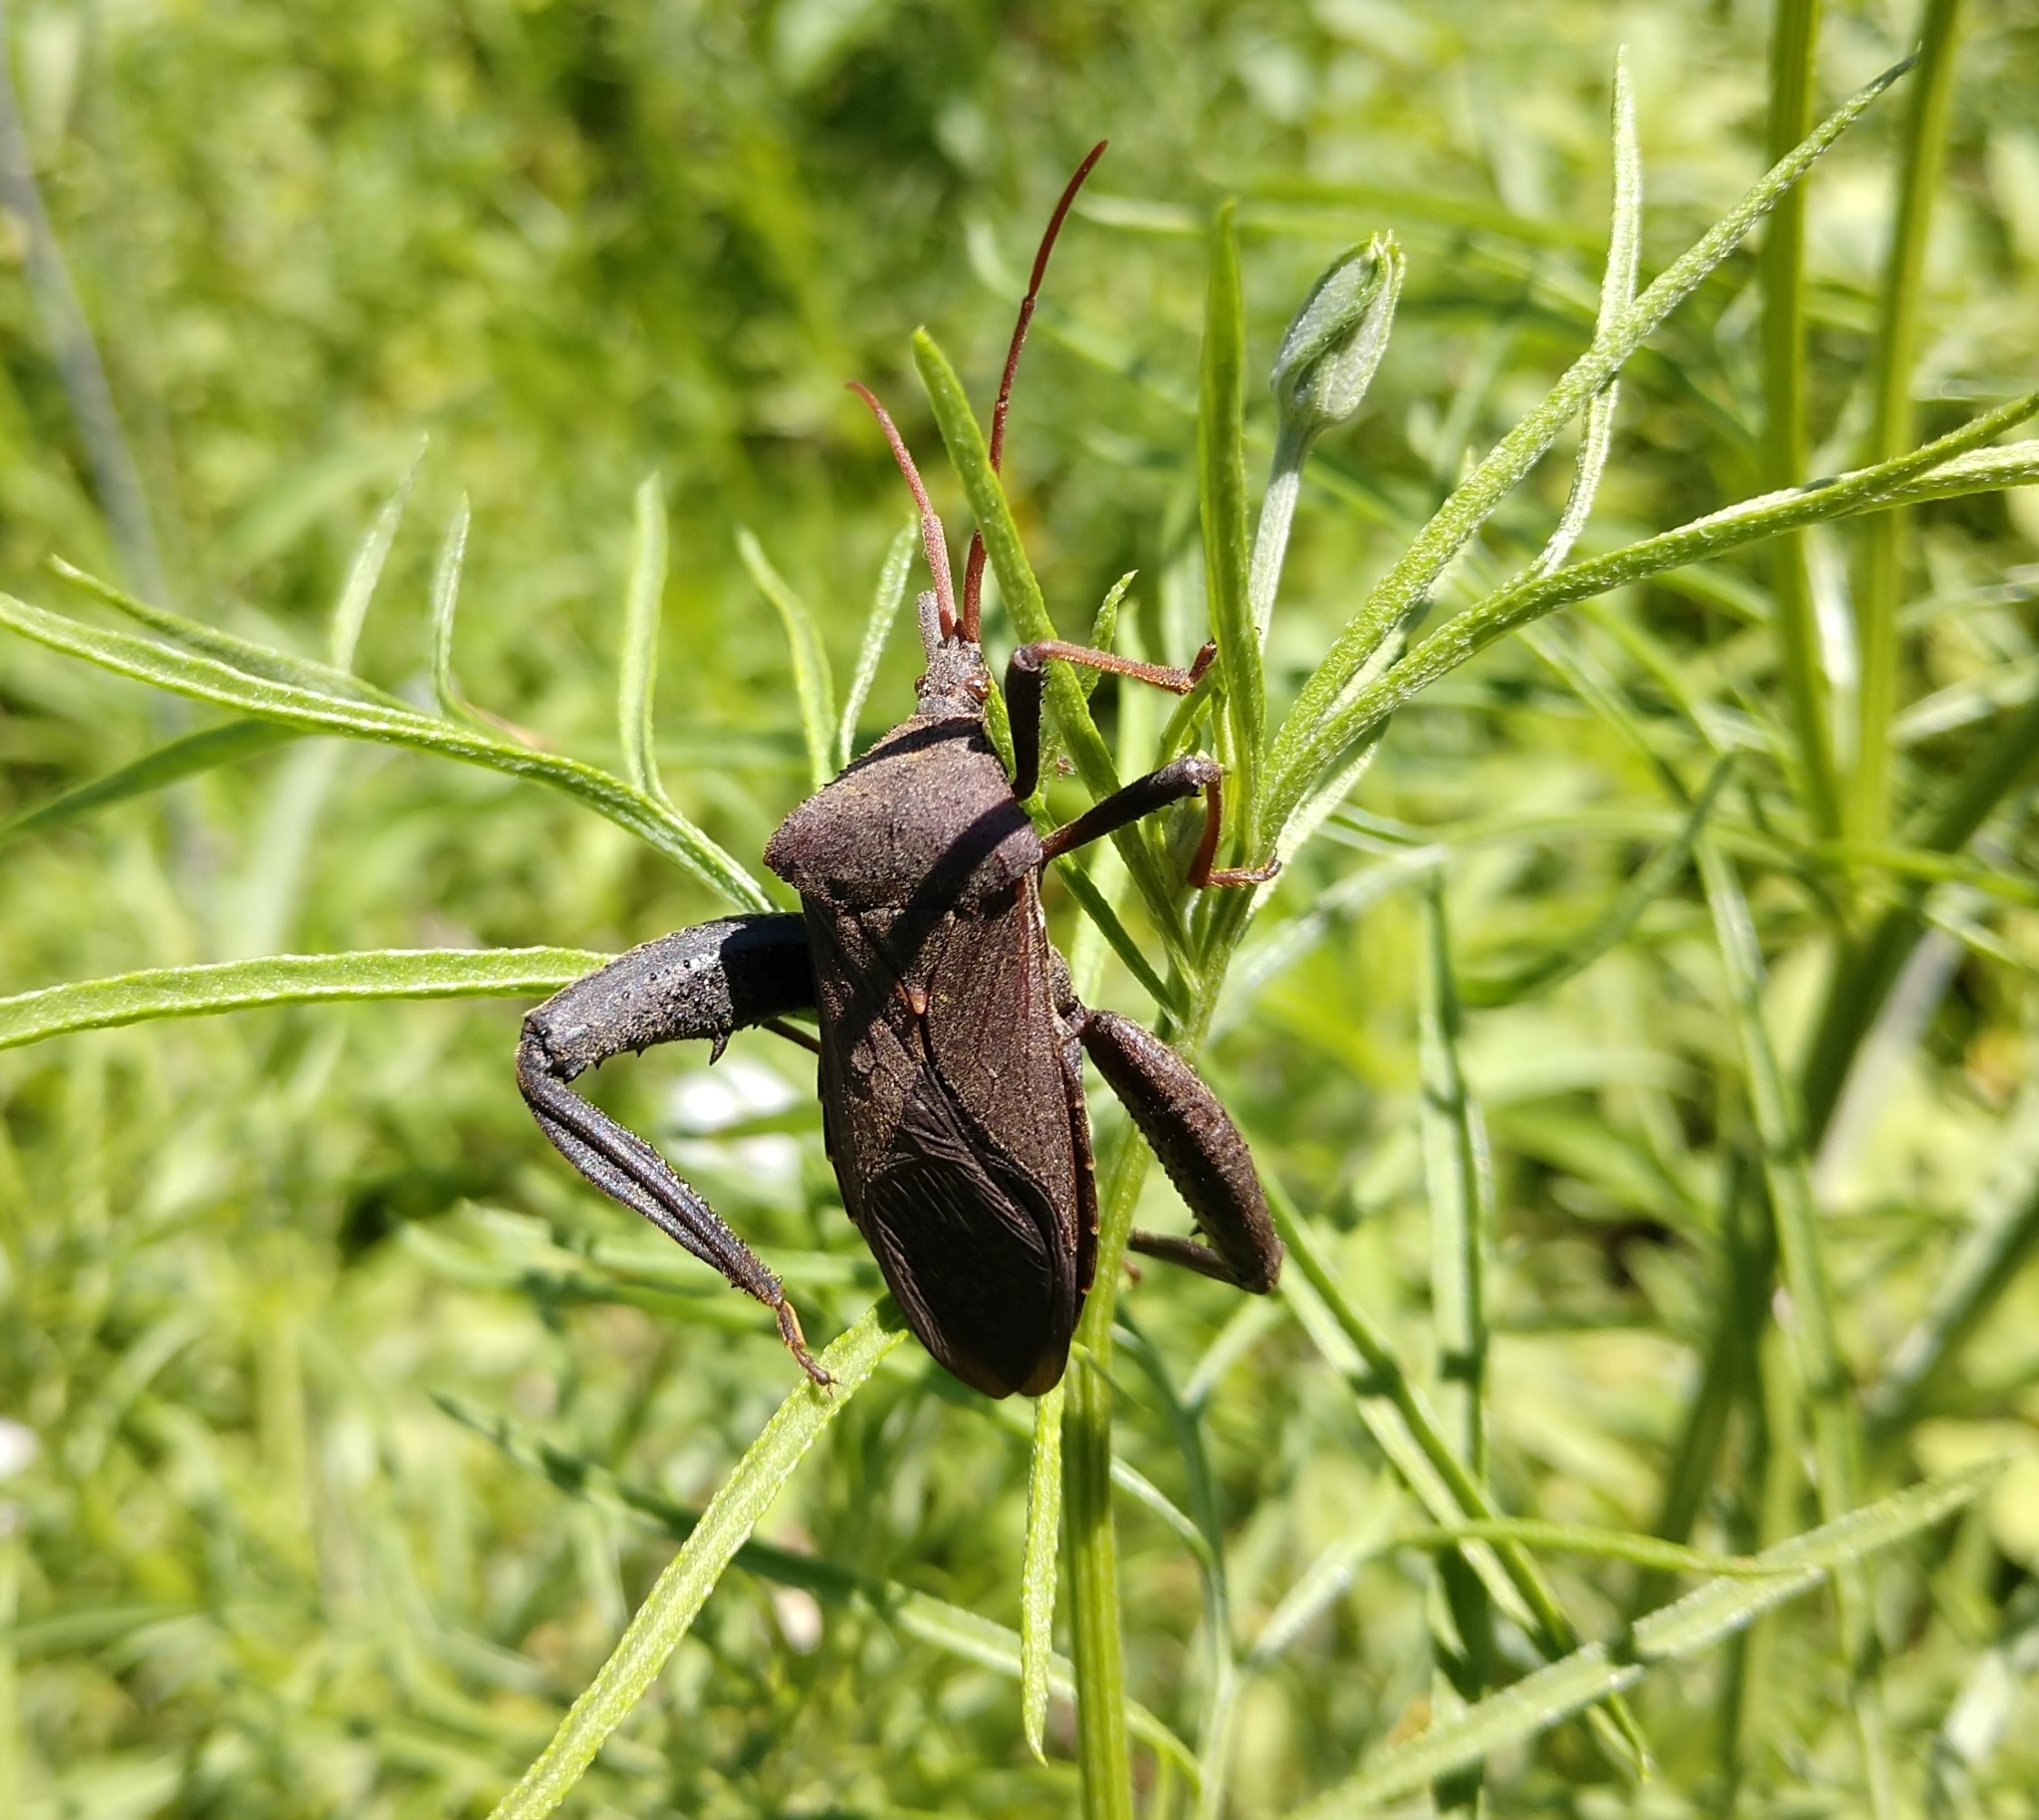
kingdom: Animalia
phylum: Arthropoda
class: Insecta
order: Hemiptera
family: Coreidae
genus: Acanthocephala
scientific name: Acanthocephala femorata
